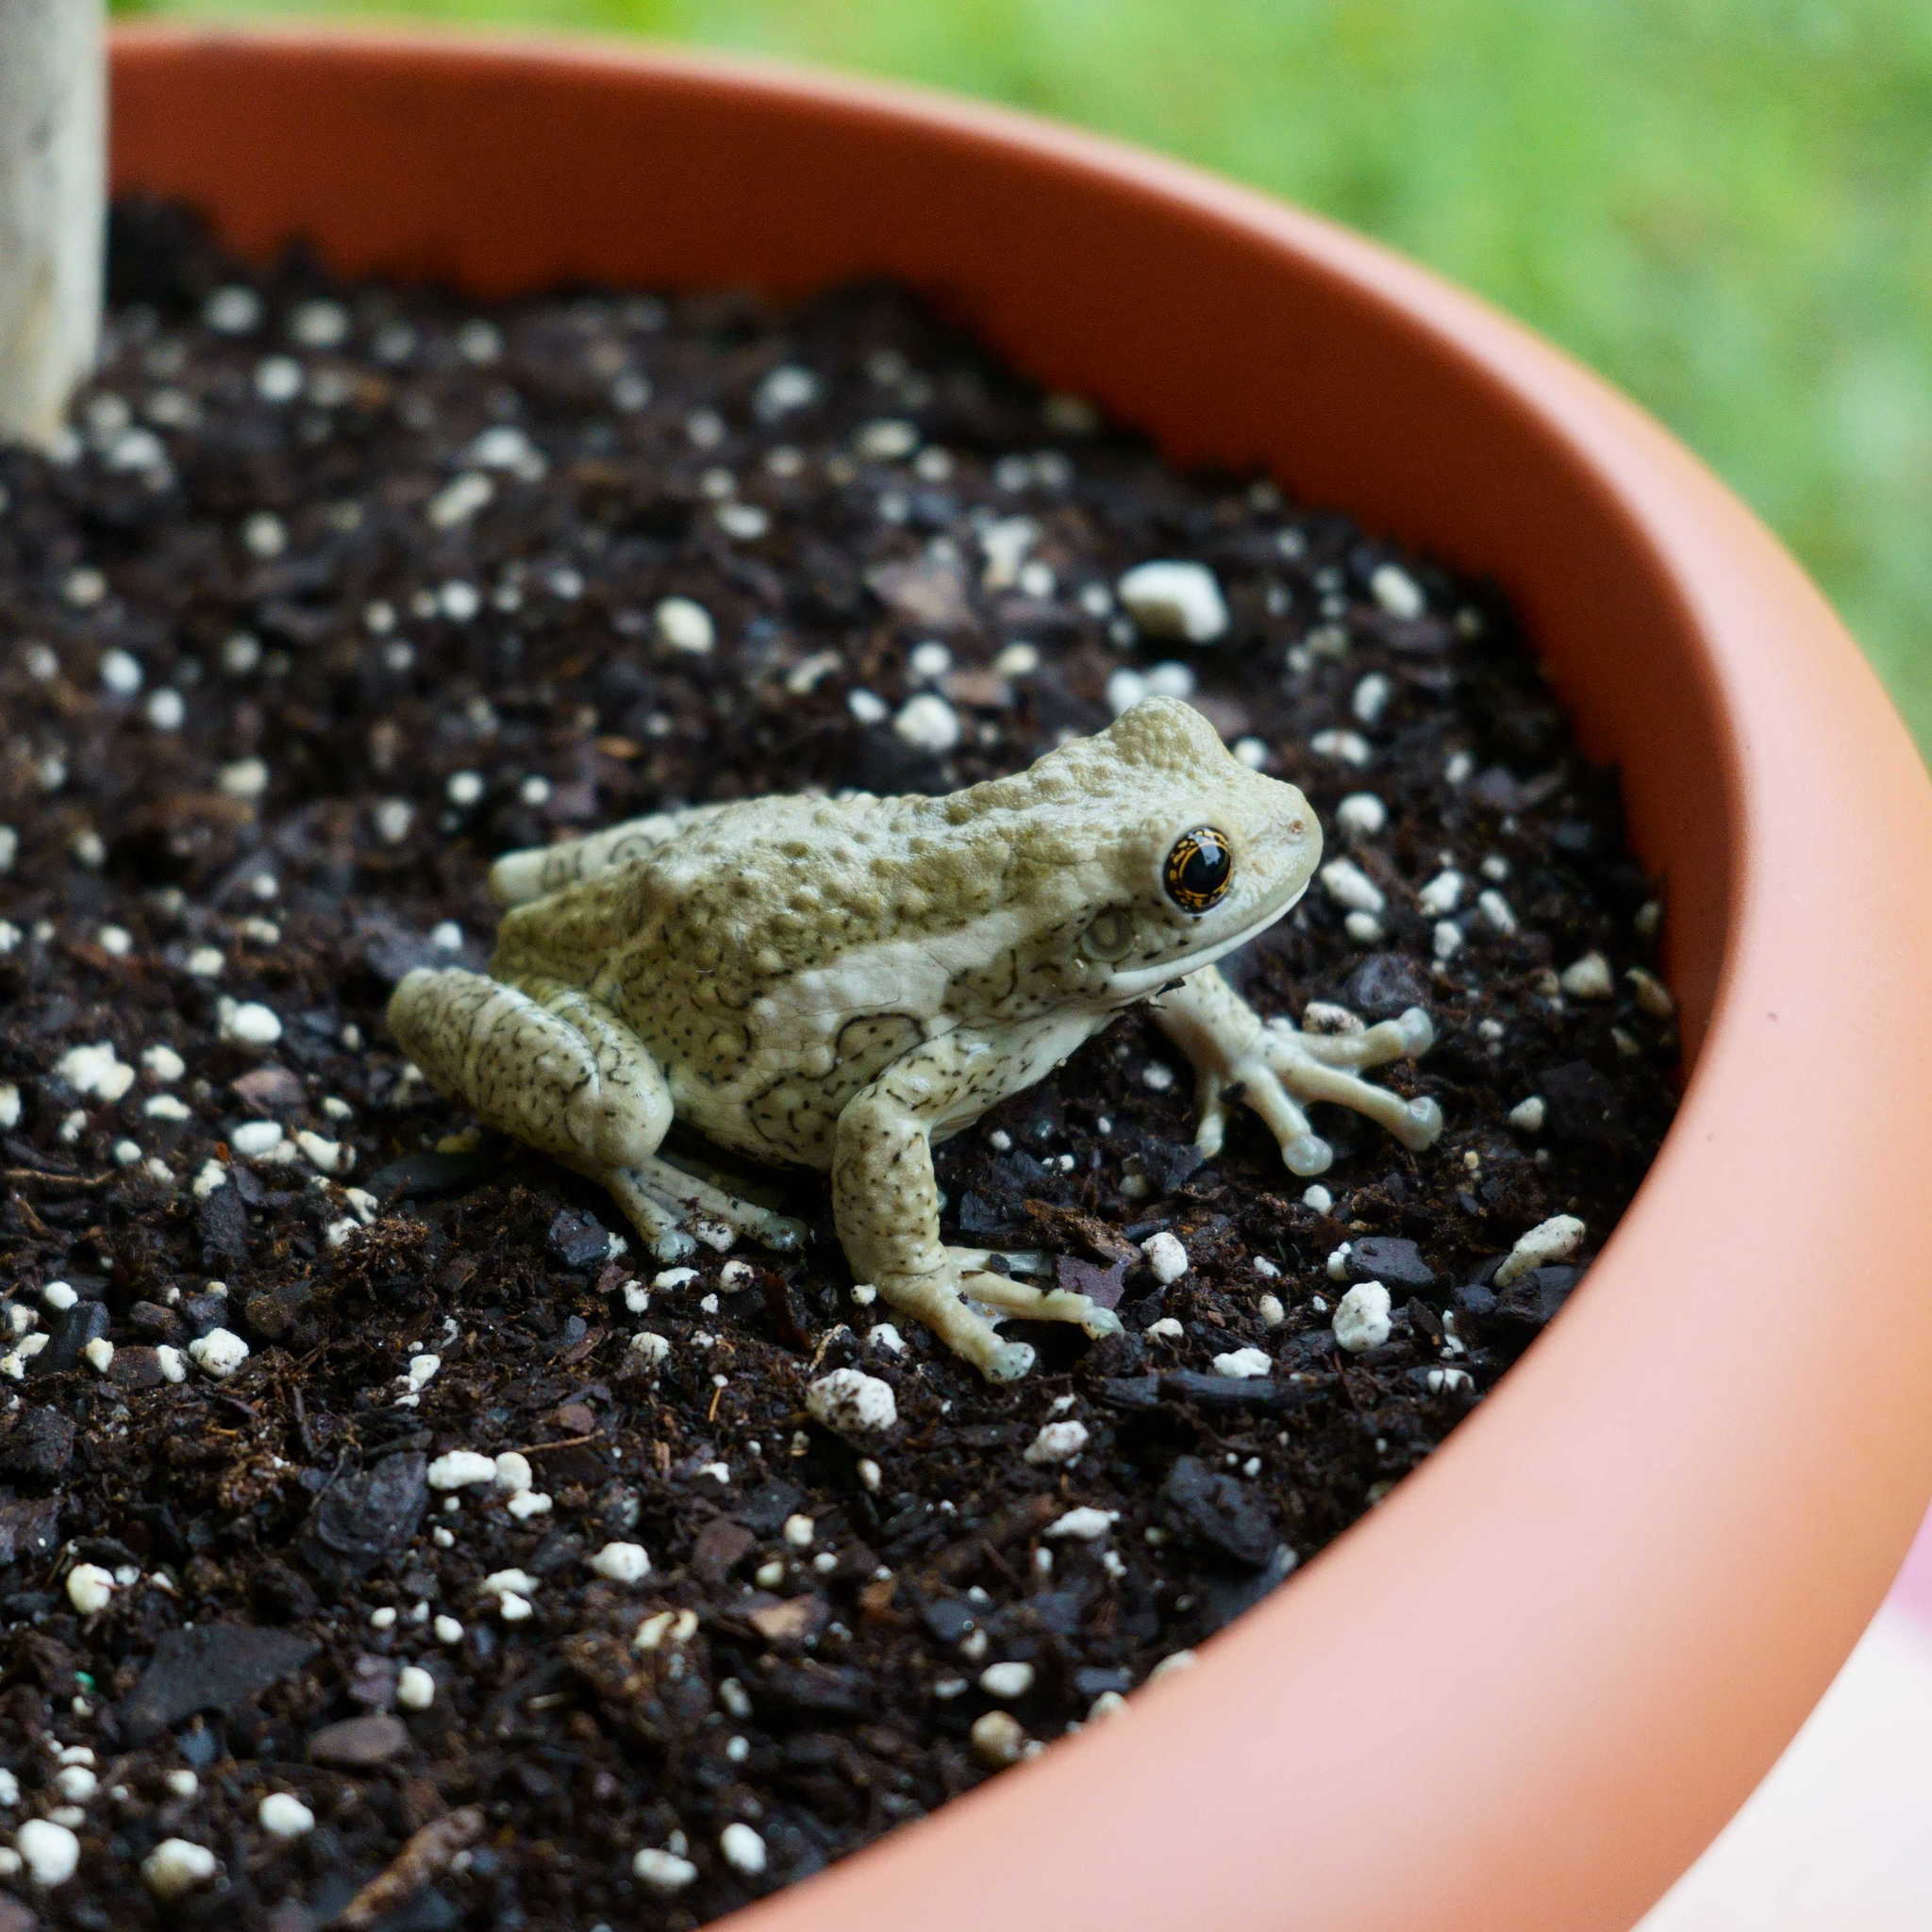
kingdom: Animalia
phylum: Chordata
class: Amphibia
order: Anura
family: Hylidae
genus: Trachycephalus
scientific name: Trachycephalus vermiculatus
